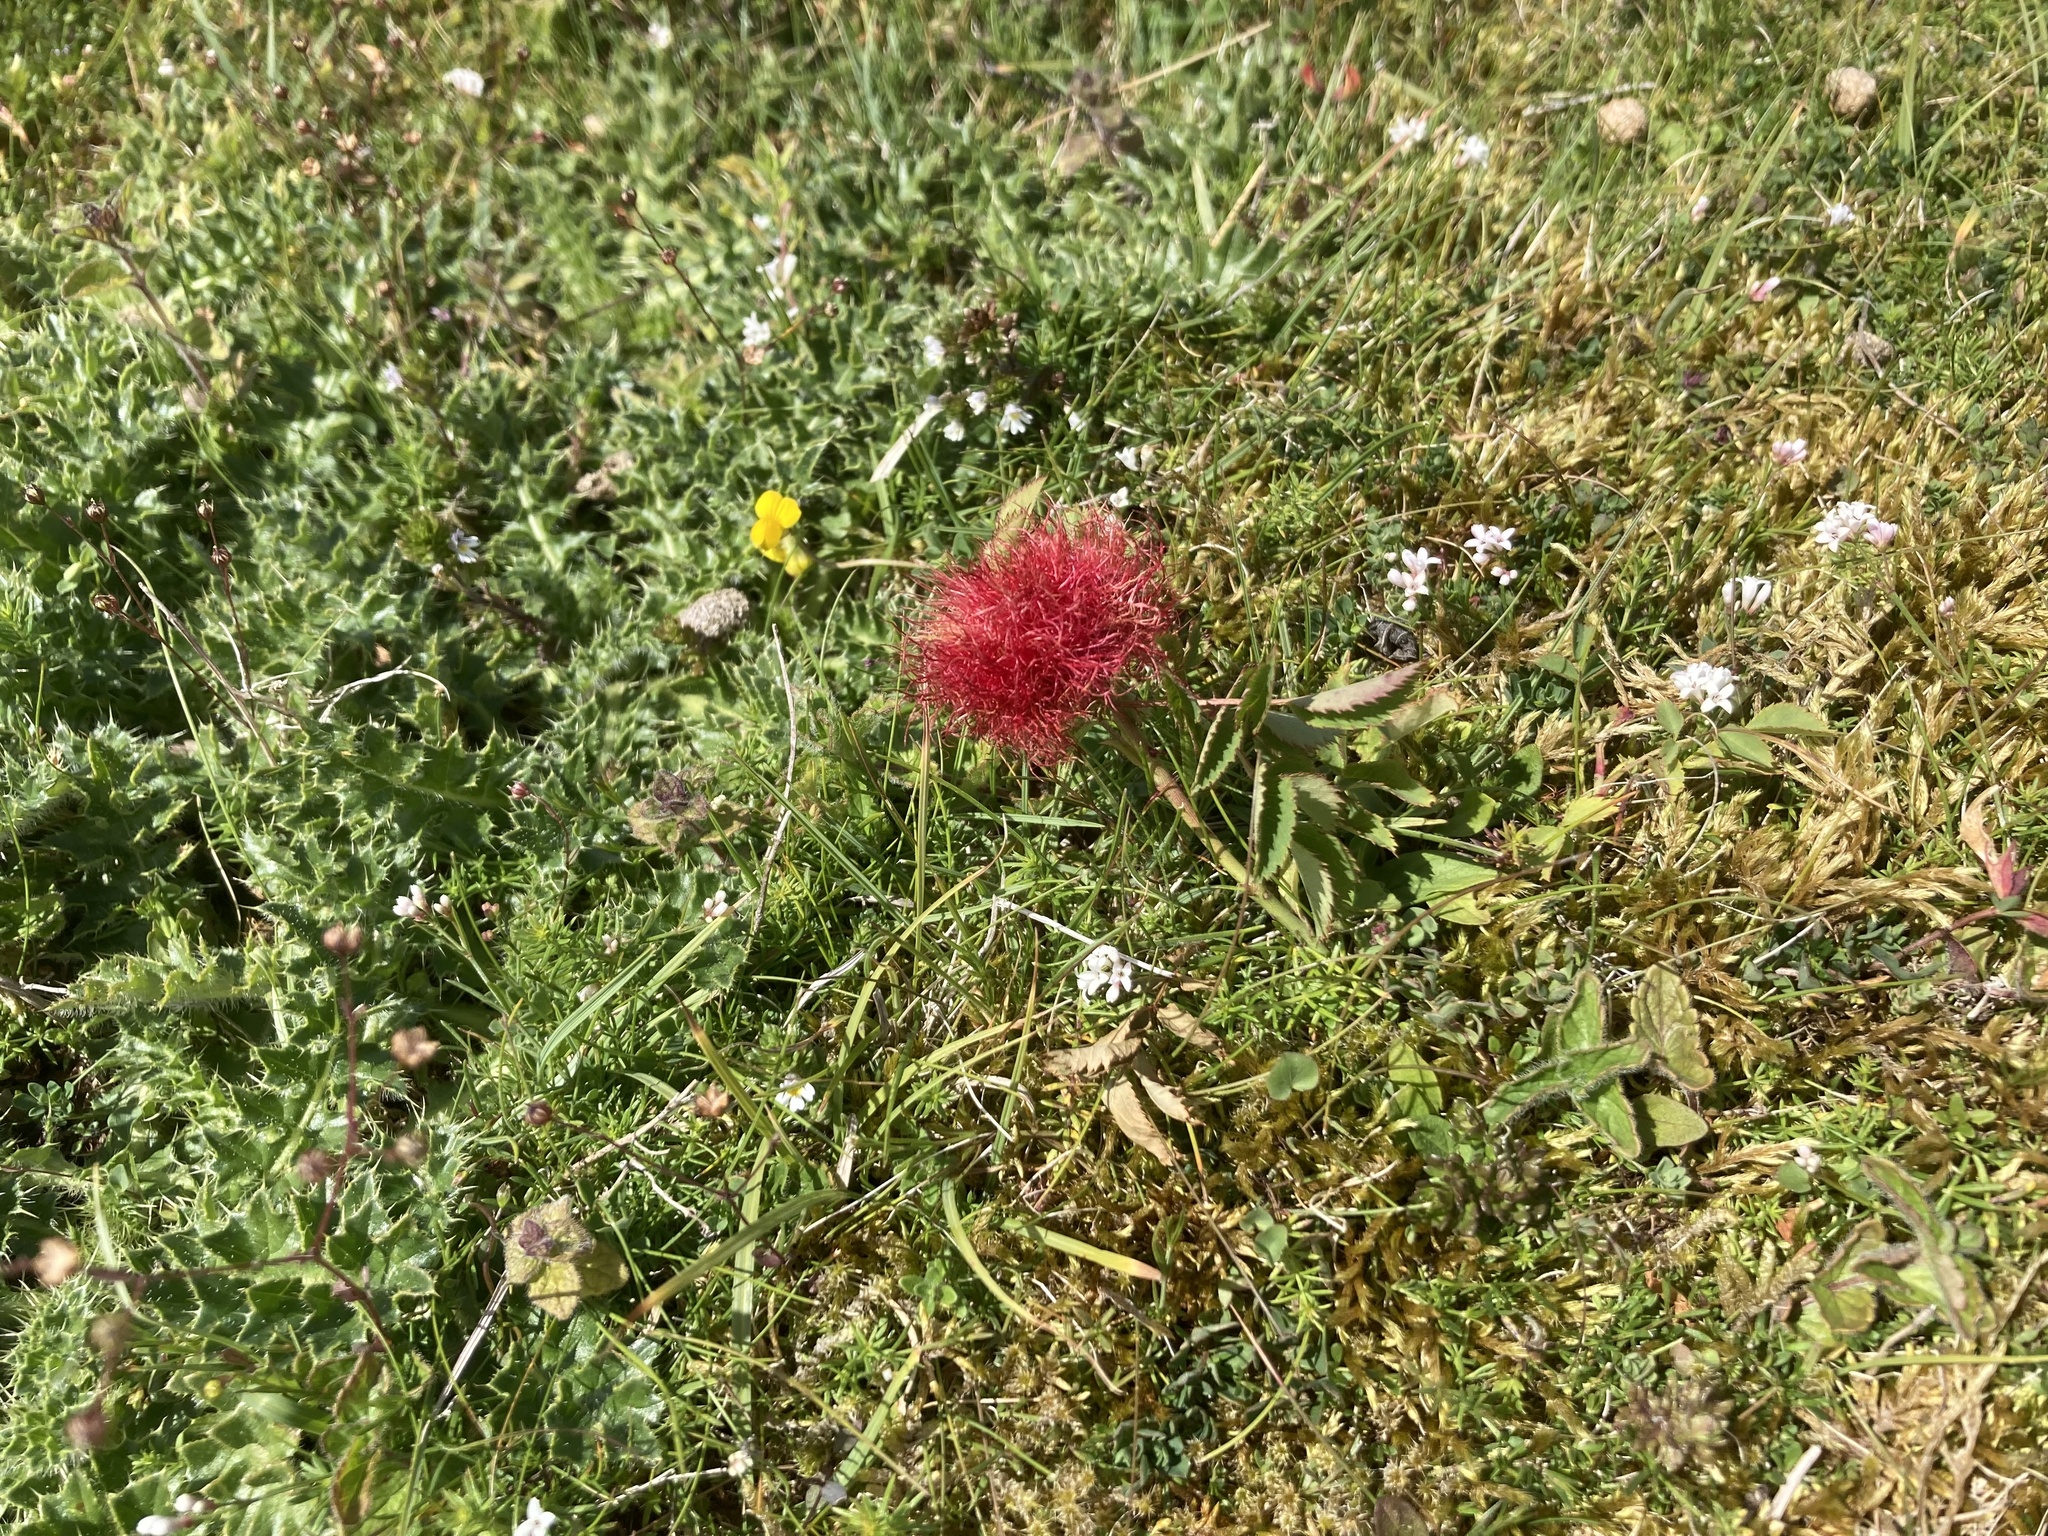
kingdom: Animalia
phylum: Arthropoda
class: Insecta
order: Hymenoptera
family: Cynipidae
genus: Diplolepis
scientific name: Diplolepis rosae
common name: Bedeguar gall
